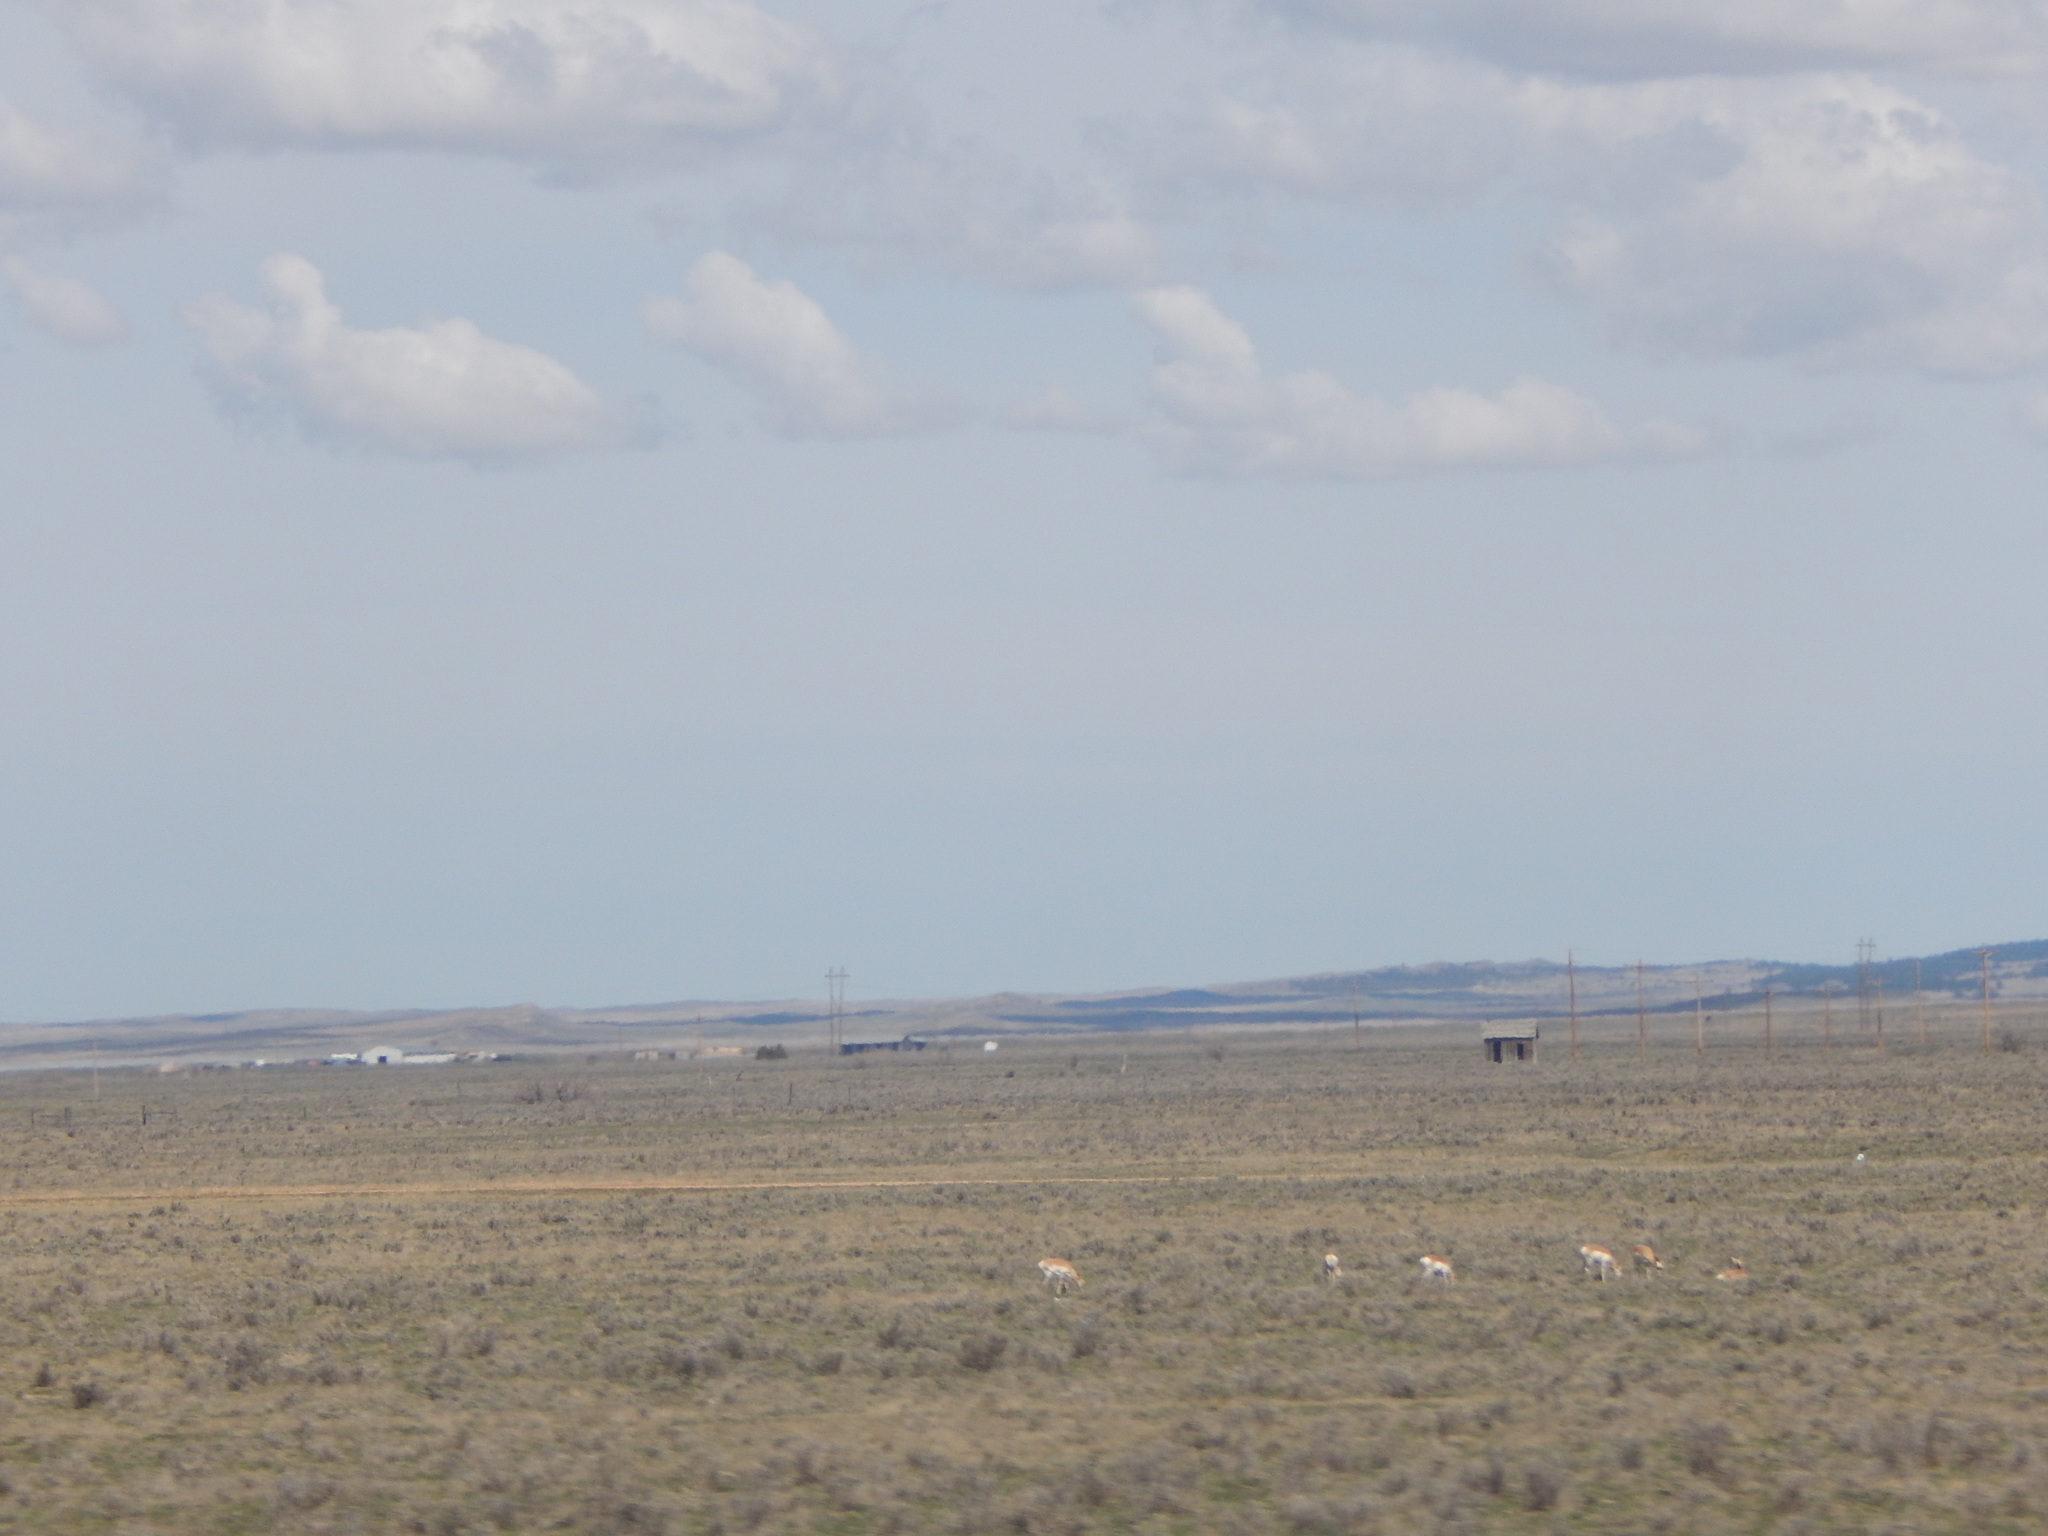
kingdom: Animalia
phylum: Chordata
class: Mammalia
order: Artiodactyla
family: Antilocapridae
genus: Antilocapra
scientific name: Antilocapra americana
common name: Pronghorn
